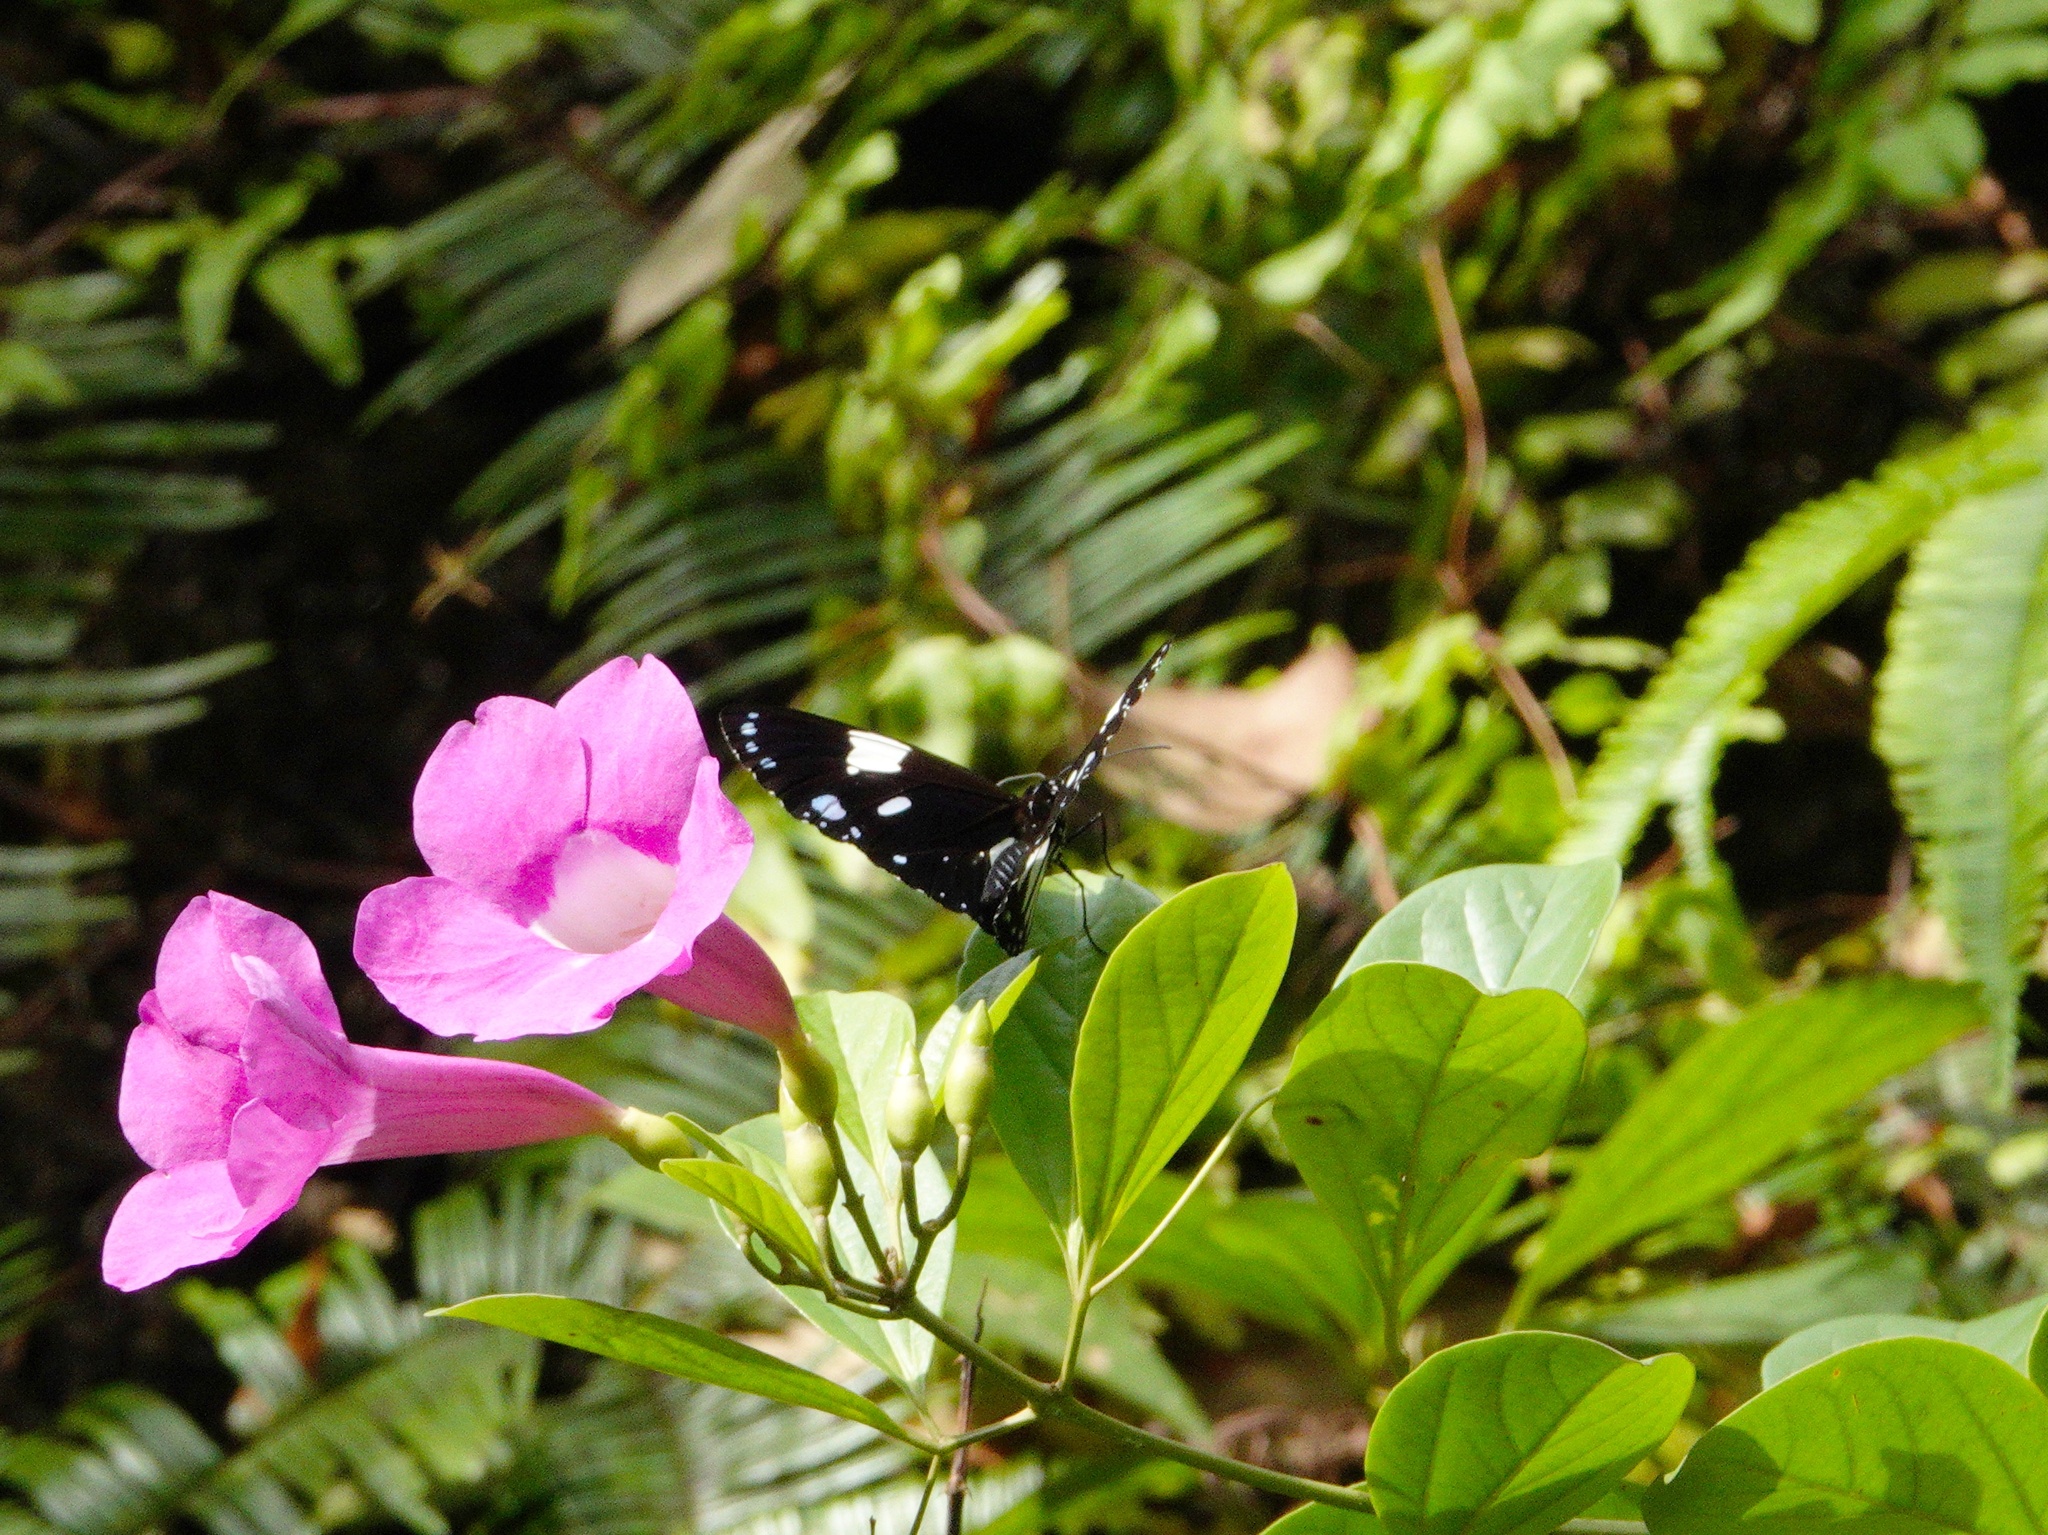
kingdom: Animalia
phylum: Arthropoda
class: Insecta
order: Lepidoptera
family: Nymphalidae
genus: Euploea
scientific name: Euploea radamanthus
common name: Magpie crow butterfly
